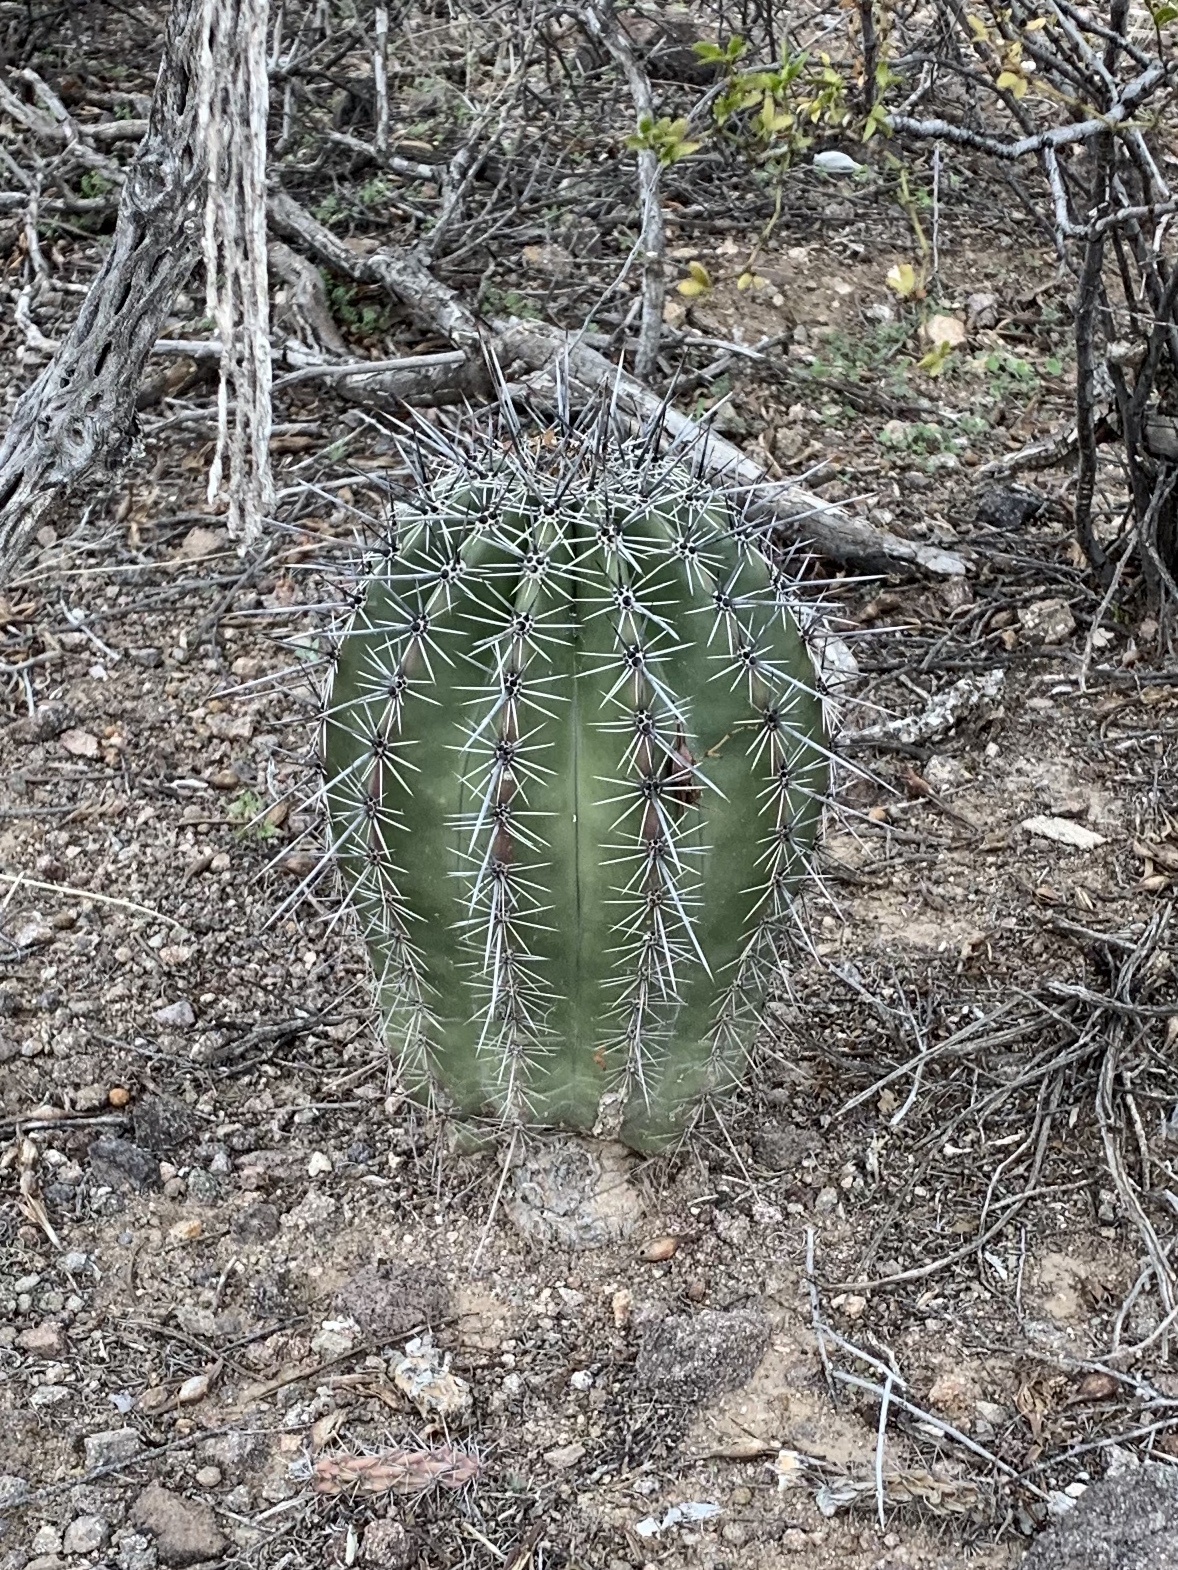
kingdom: Plantae
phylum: Tracheophyta
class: Magnoliopsida
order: Caryophyllales
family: Cactaceae
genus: Carnegiea
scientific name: Carnegiea gigantea
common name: Saguaro
